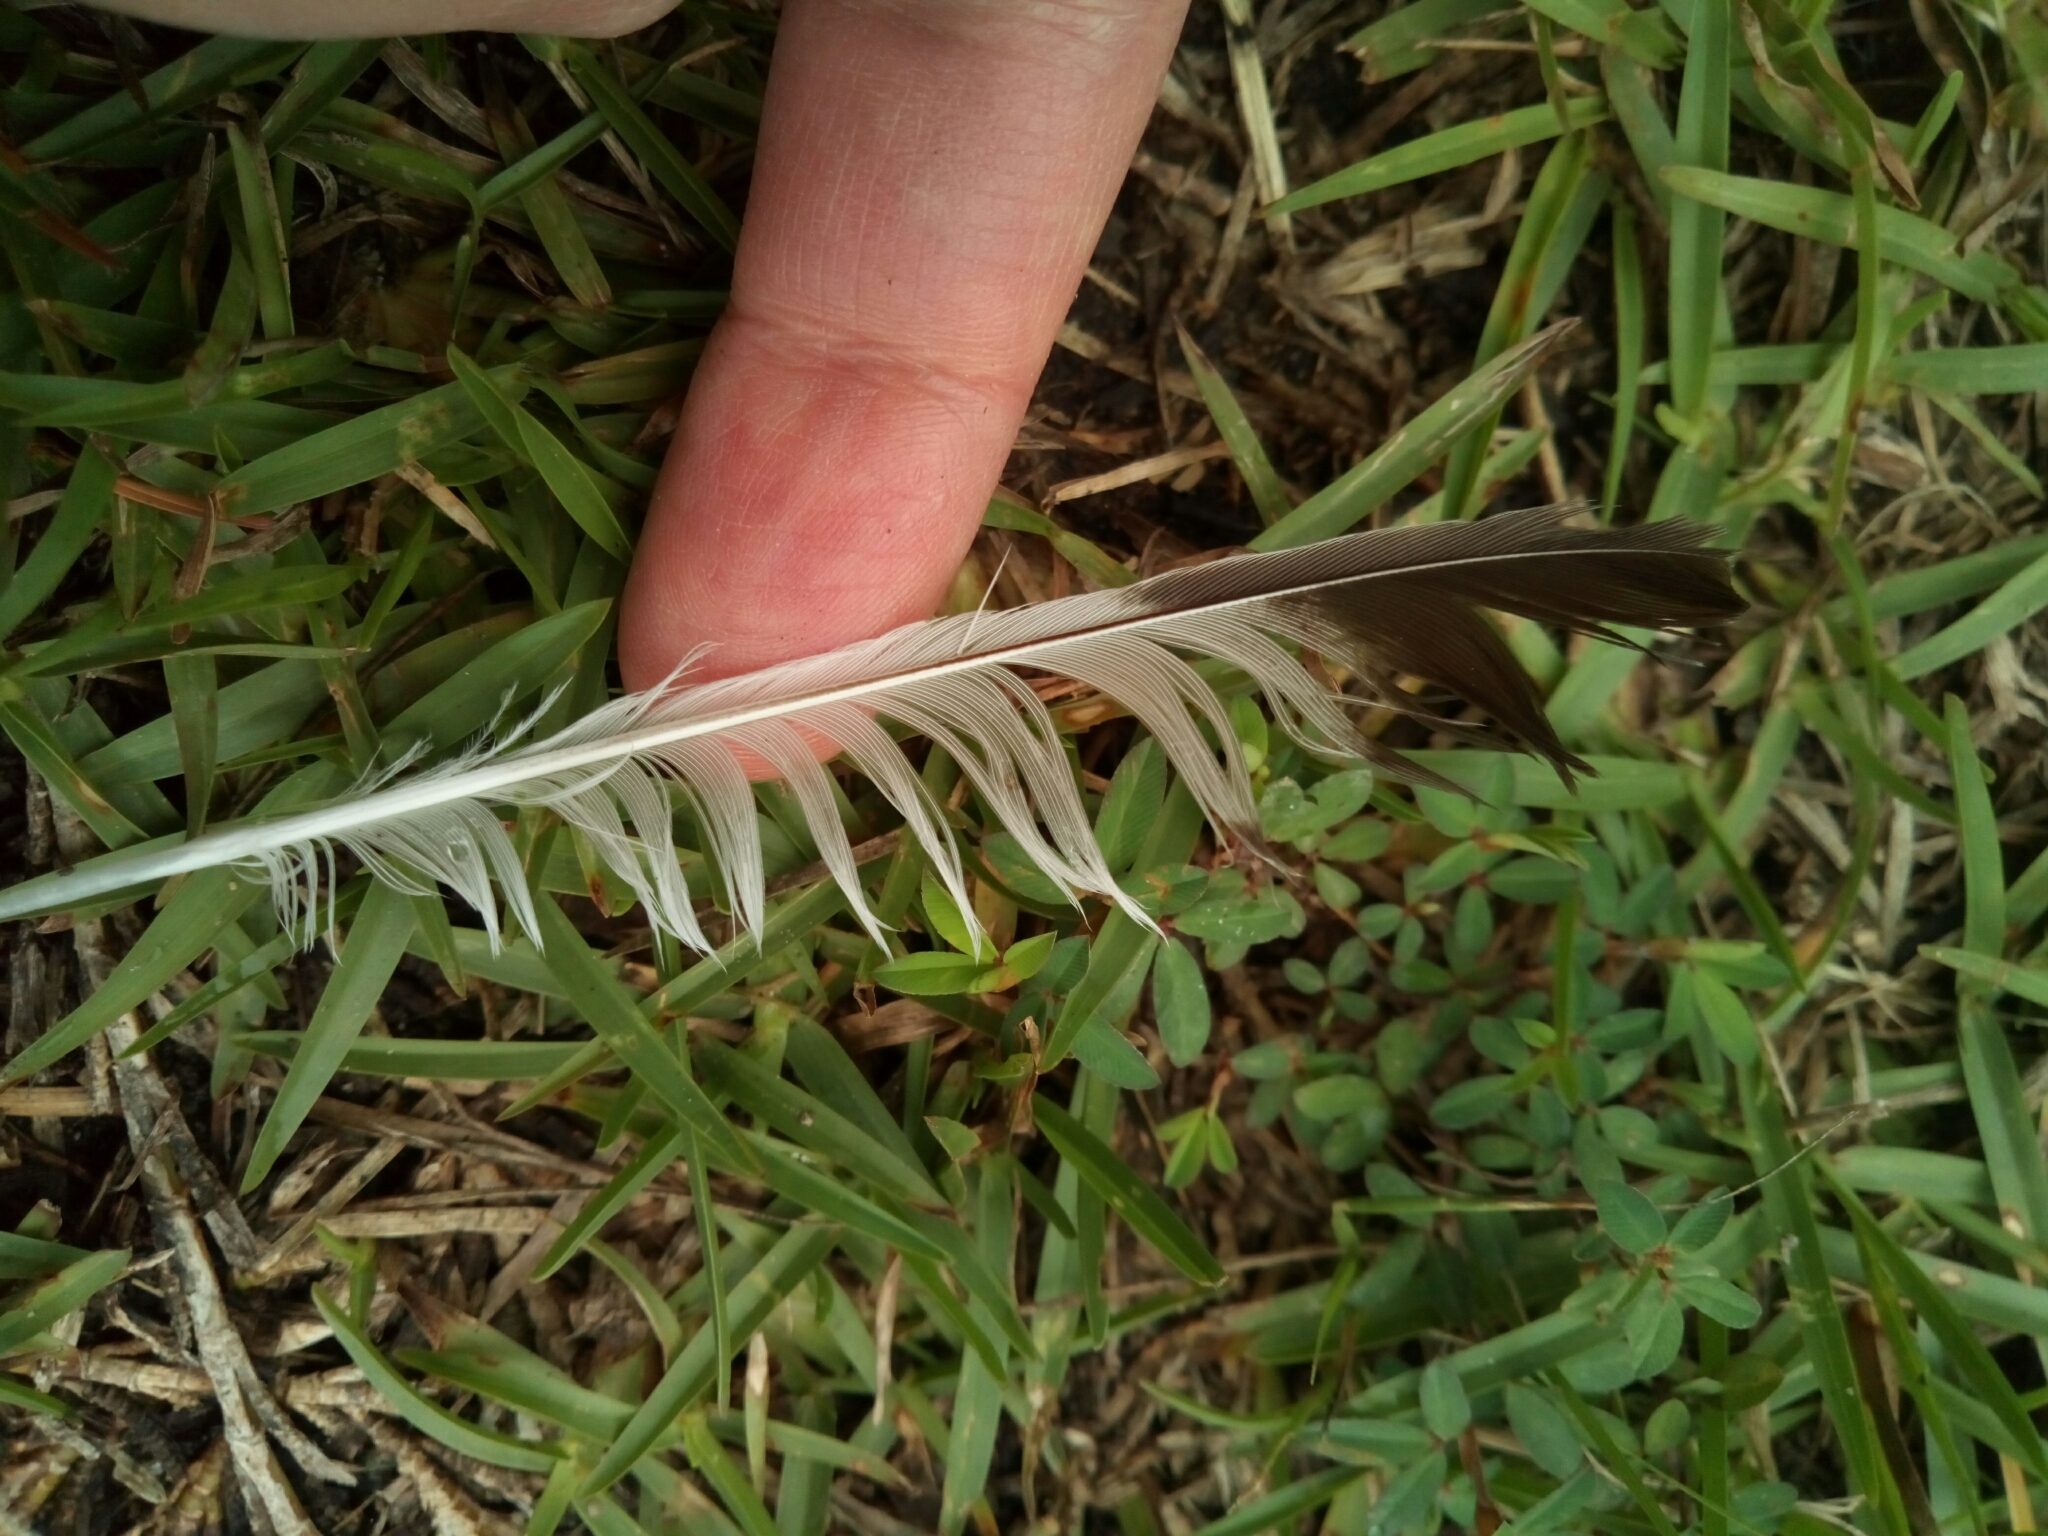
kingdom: Animalia
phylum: Chordata
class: Aves
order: Passeriformes
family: Mimidae
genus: Mimus
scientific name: Mimus polyglottos
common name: Northern mockingbird
